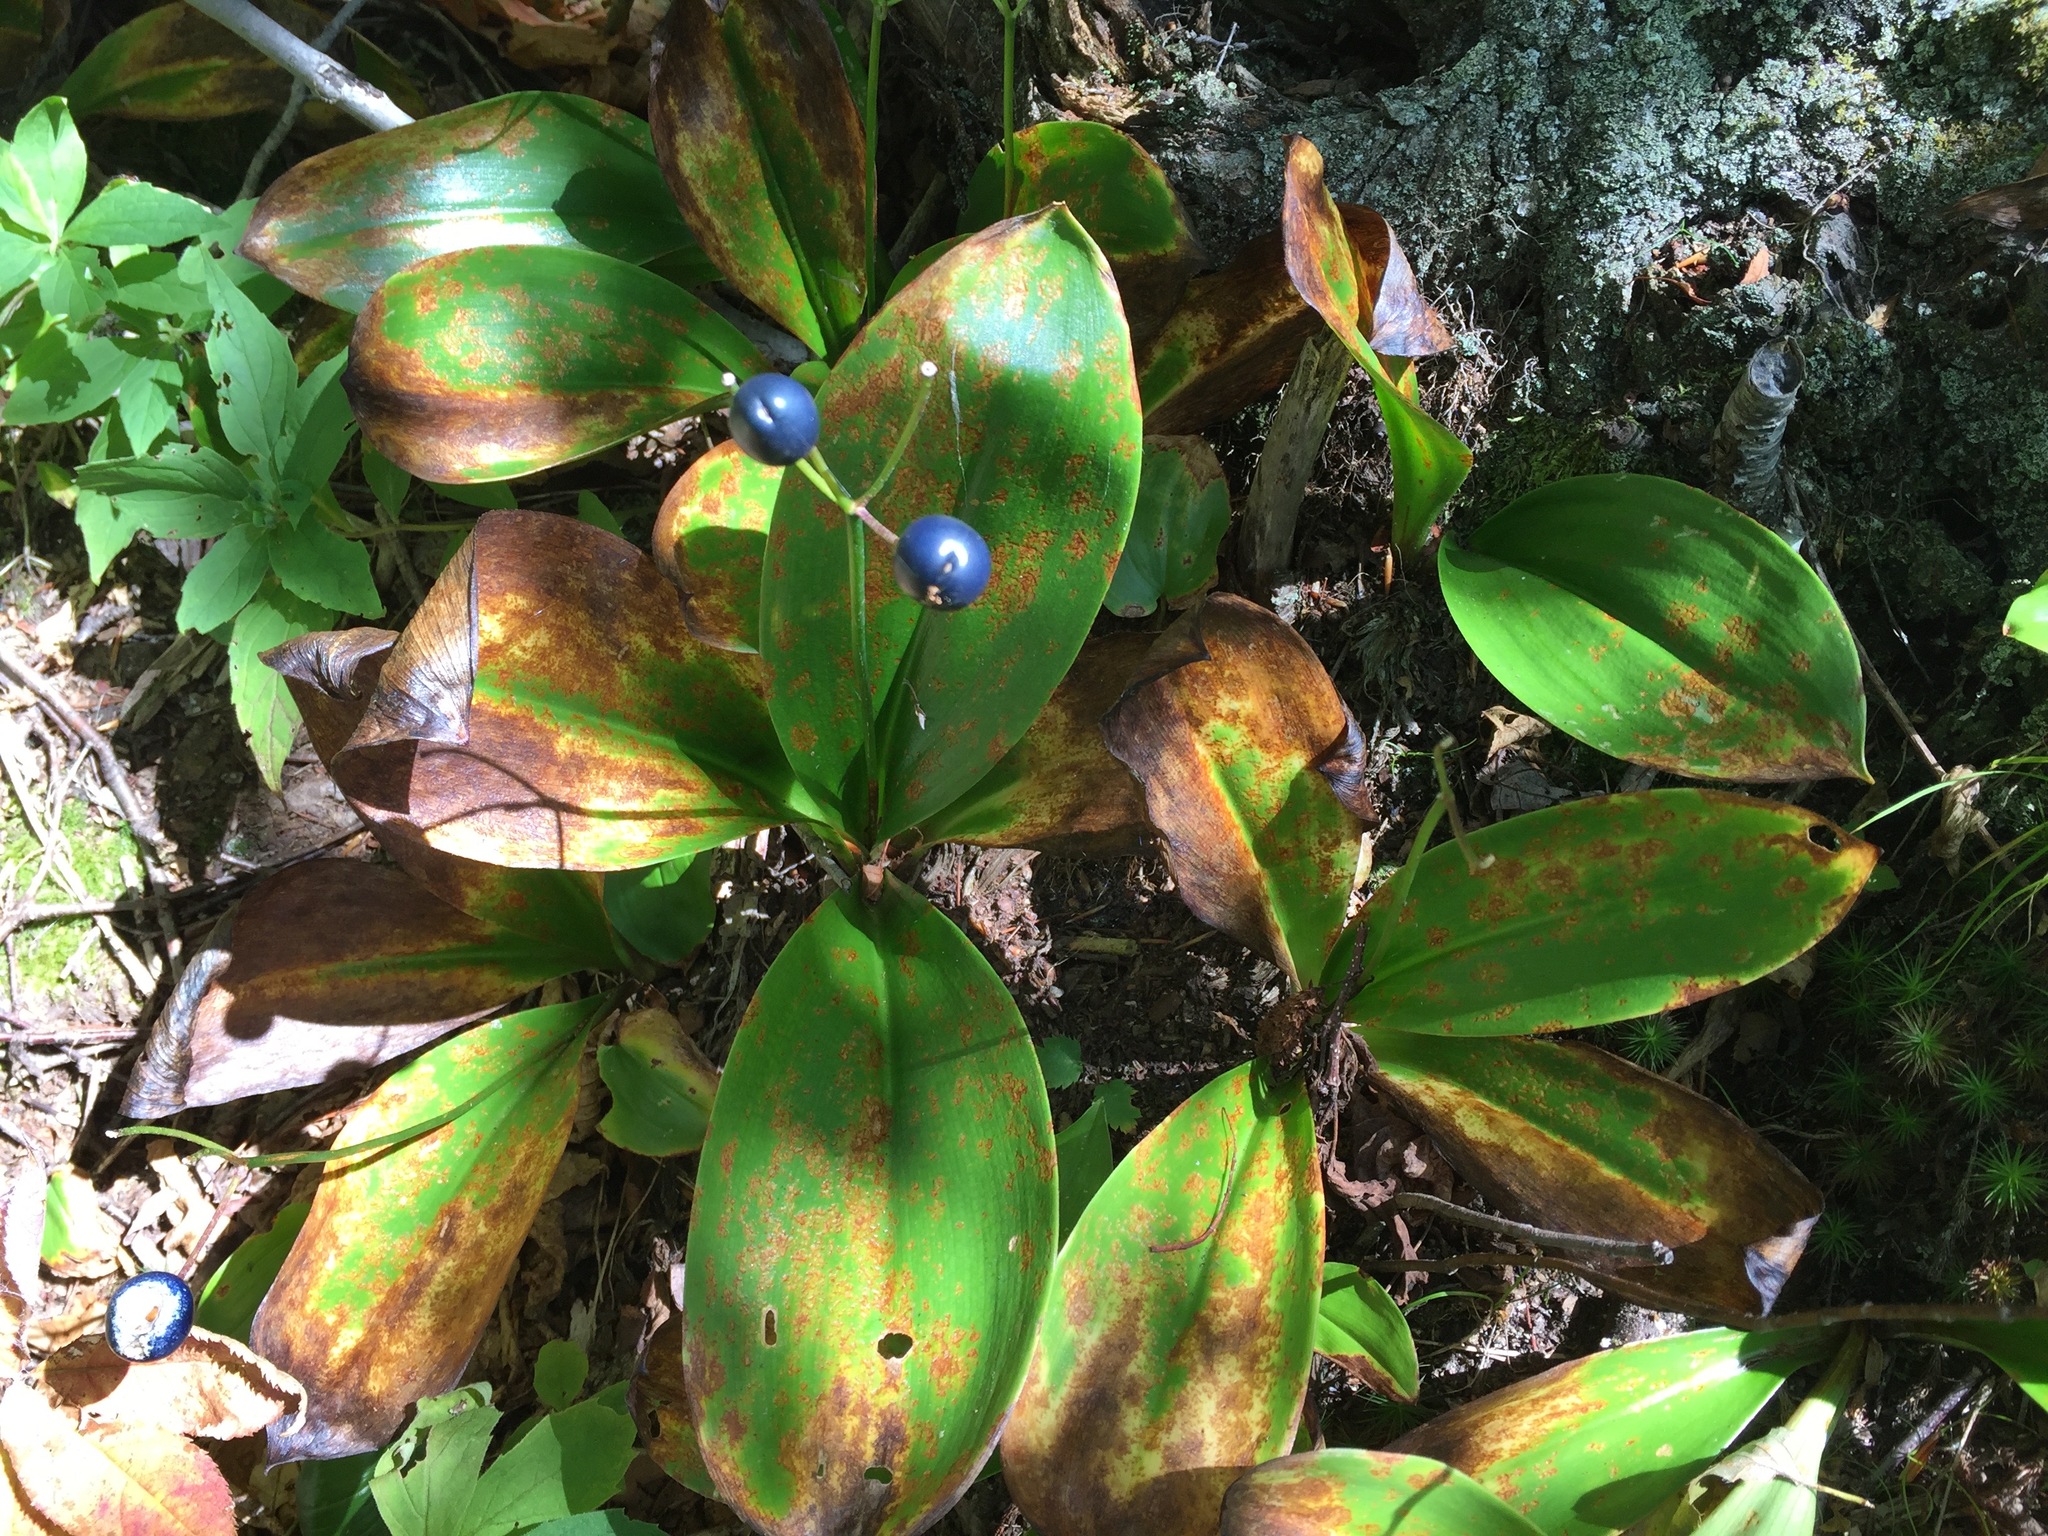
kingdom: Plantae
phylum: Tracheophyta
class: Liliopsida
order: Liliales
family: Liliaceae
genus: Clintonia
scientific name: Clintonia borealis
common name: Yellow clintonia
